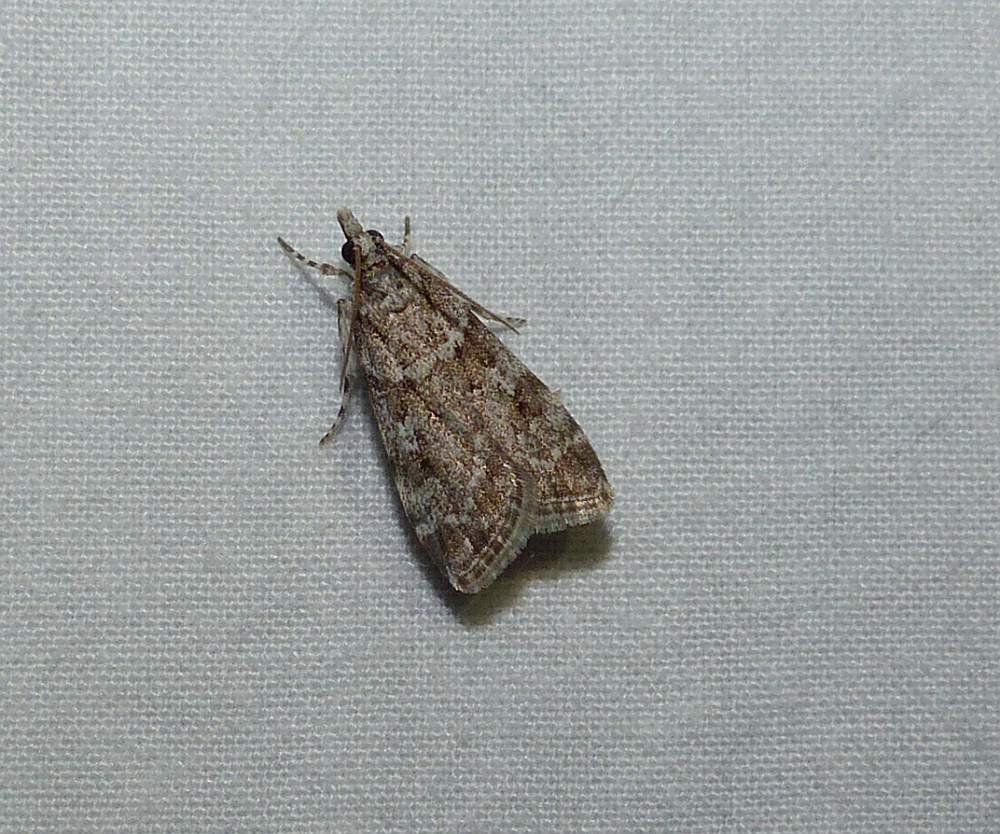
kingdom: Animalia
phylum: Arthropoda
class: Insecta
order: Lepidoptera
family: Crambidae
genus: Scoparia
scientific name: Scoparia biplagialis
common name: Double-striped scoparia moth
